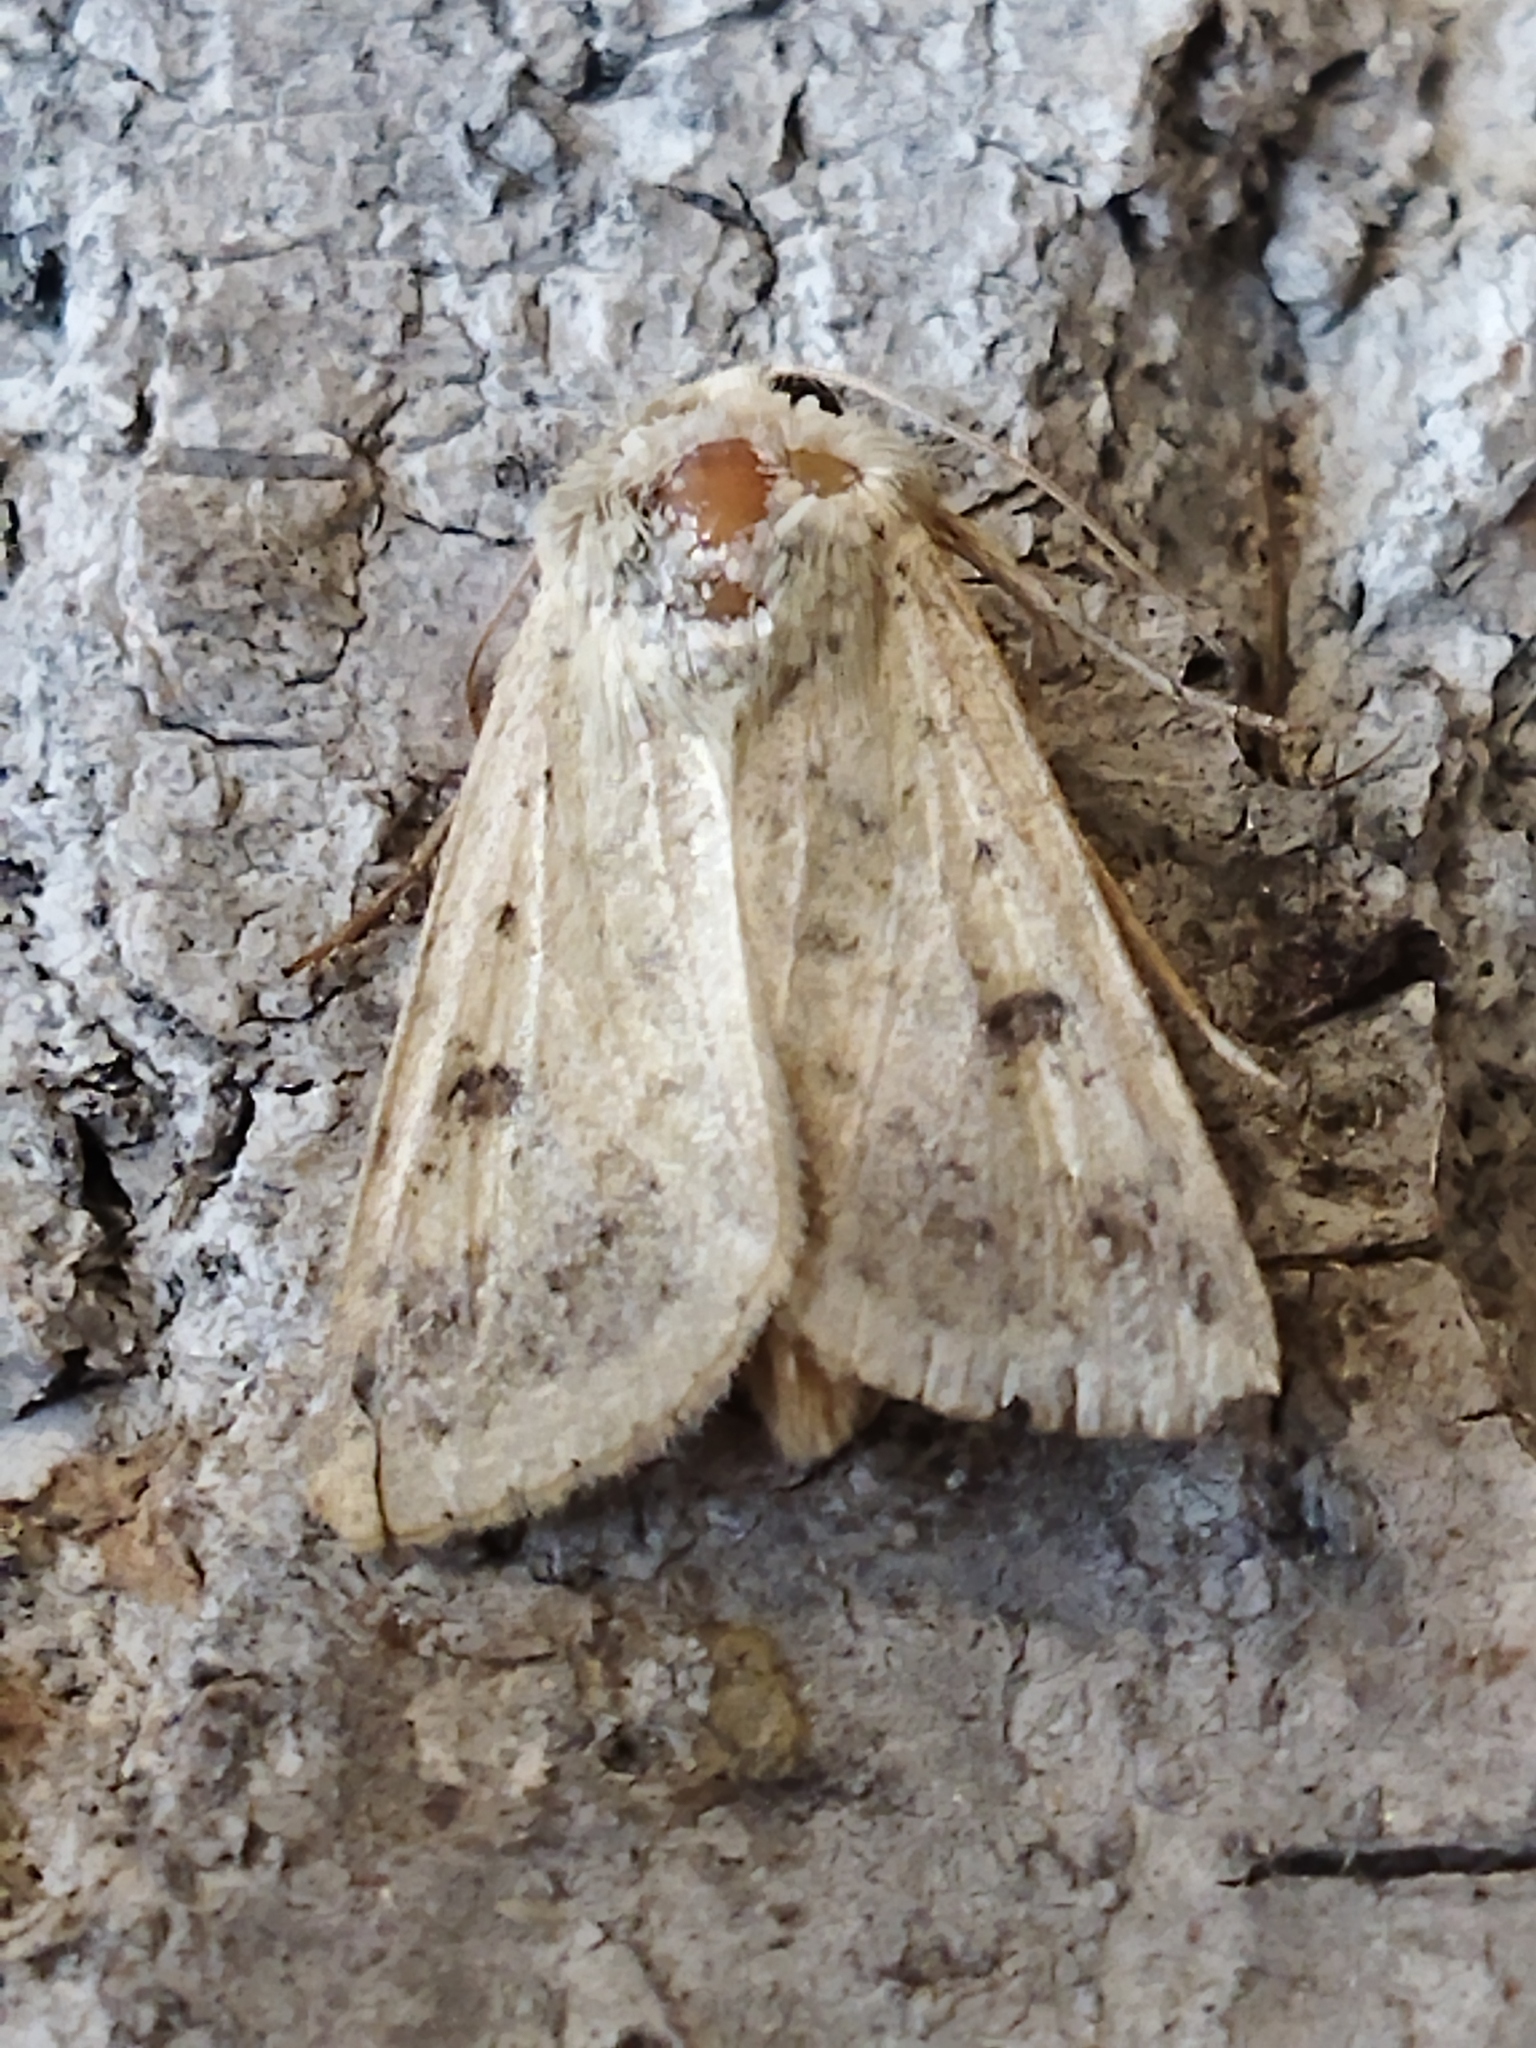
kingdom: Animalia
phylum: Arthropoda
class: Insecta
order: Lepidoptera
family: Noctuidae
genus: Helicoverpa
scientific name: Helicoverpa armigera
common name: Cotton bollworm
